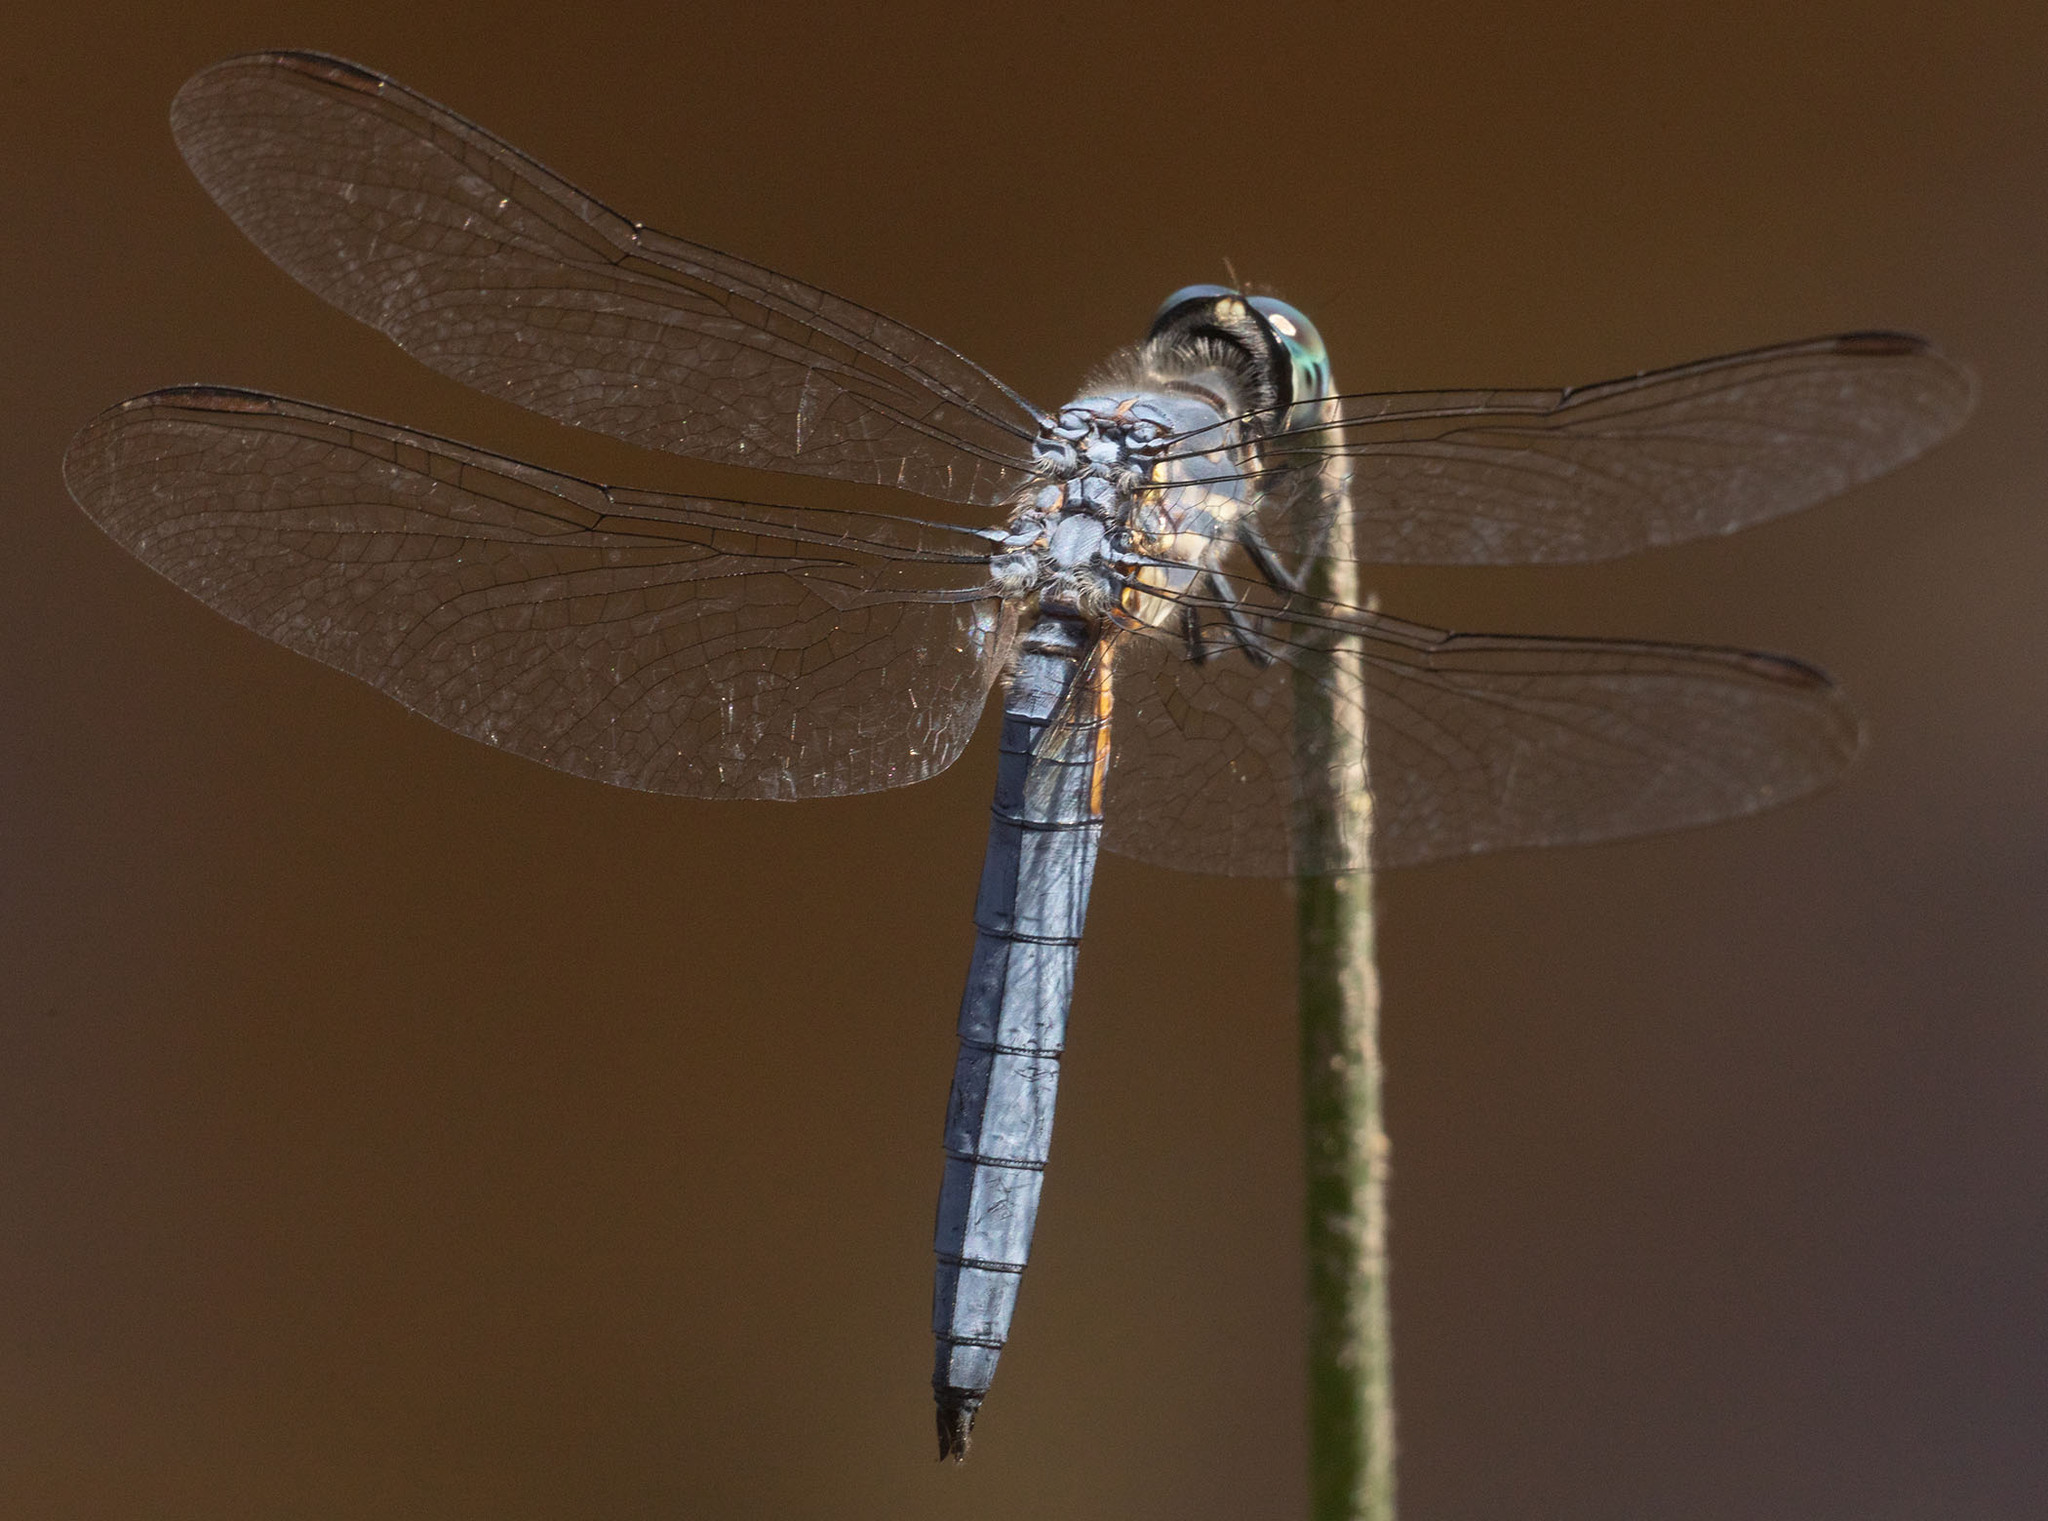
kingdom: Animalia
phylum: Arthropoda
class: Insecta
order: Odonata
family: Libellulidae
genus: Pachydiplax
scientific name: Pachydiplax longipennis
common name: Blue dasher
